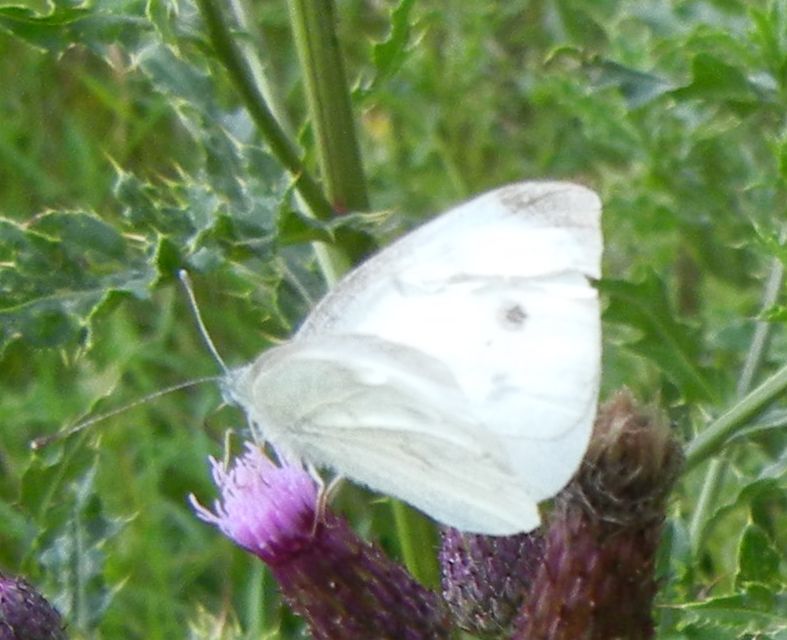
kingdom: Animalia
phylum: Arthropoda
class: Insecta
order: Lepidoptera
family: Pieridae
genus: Pieris
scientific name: Pieris rapae
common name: Small white
